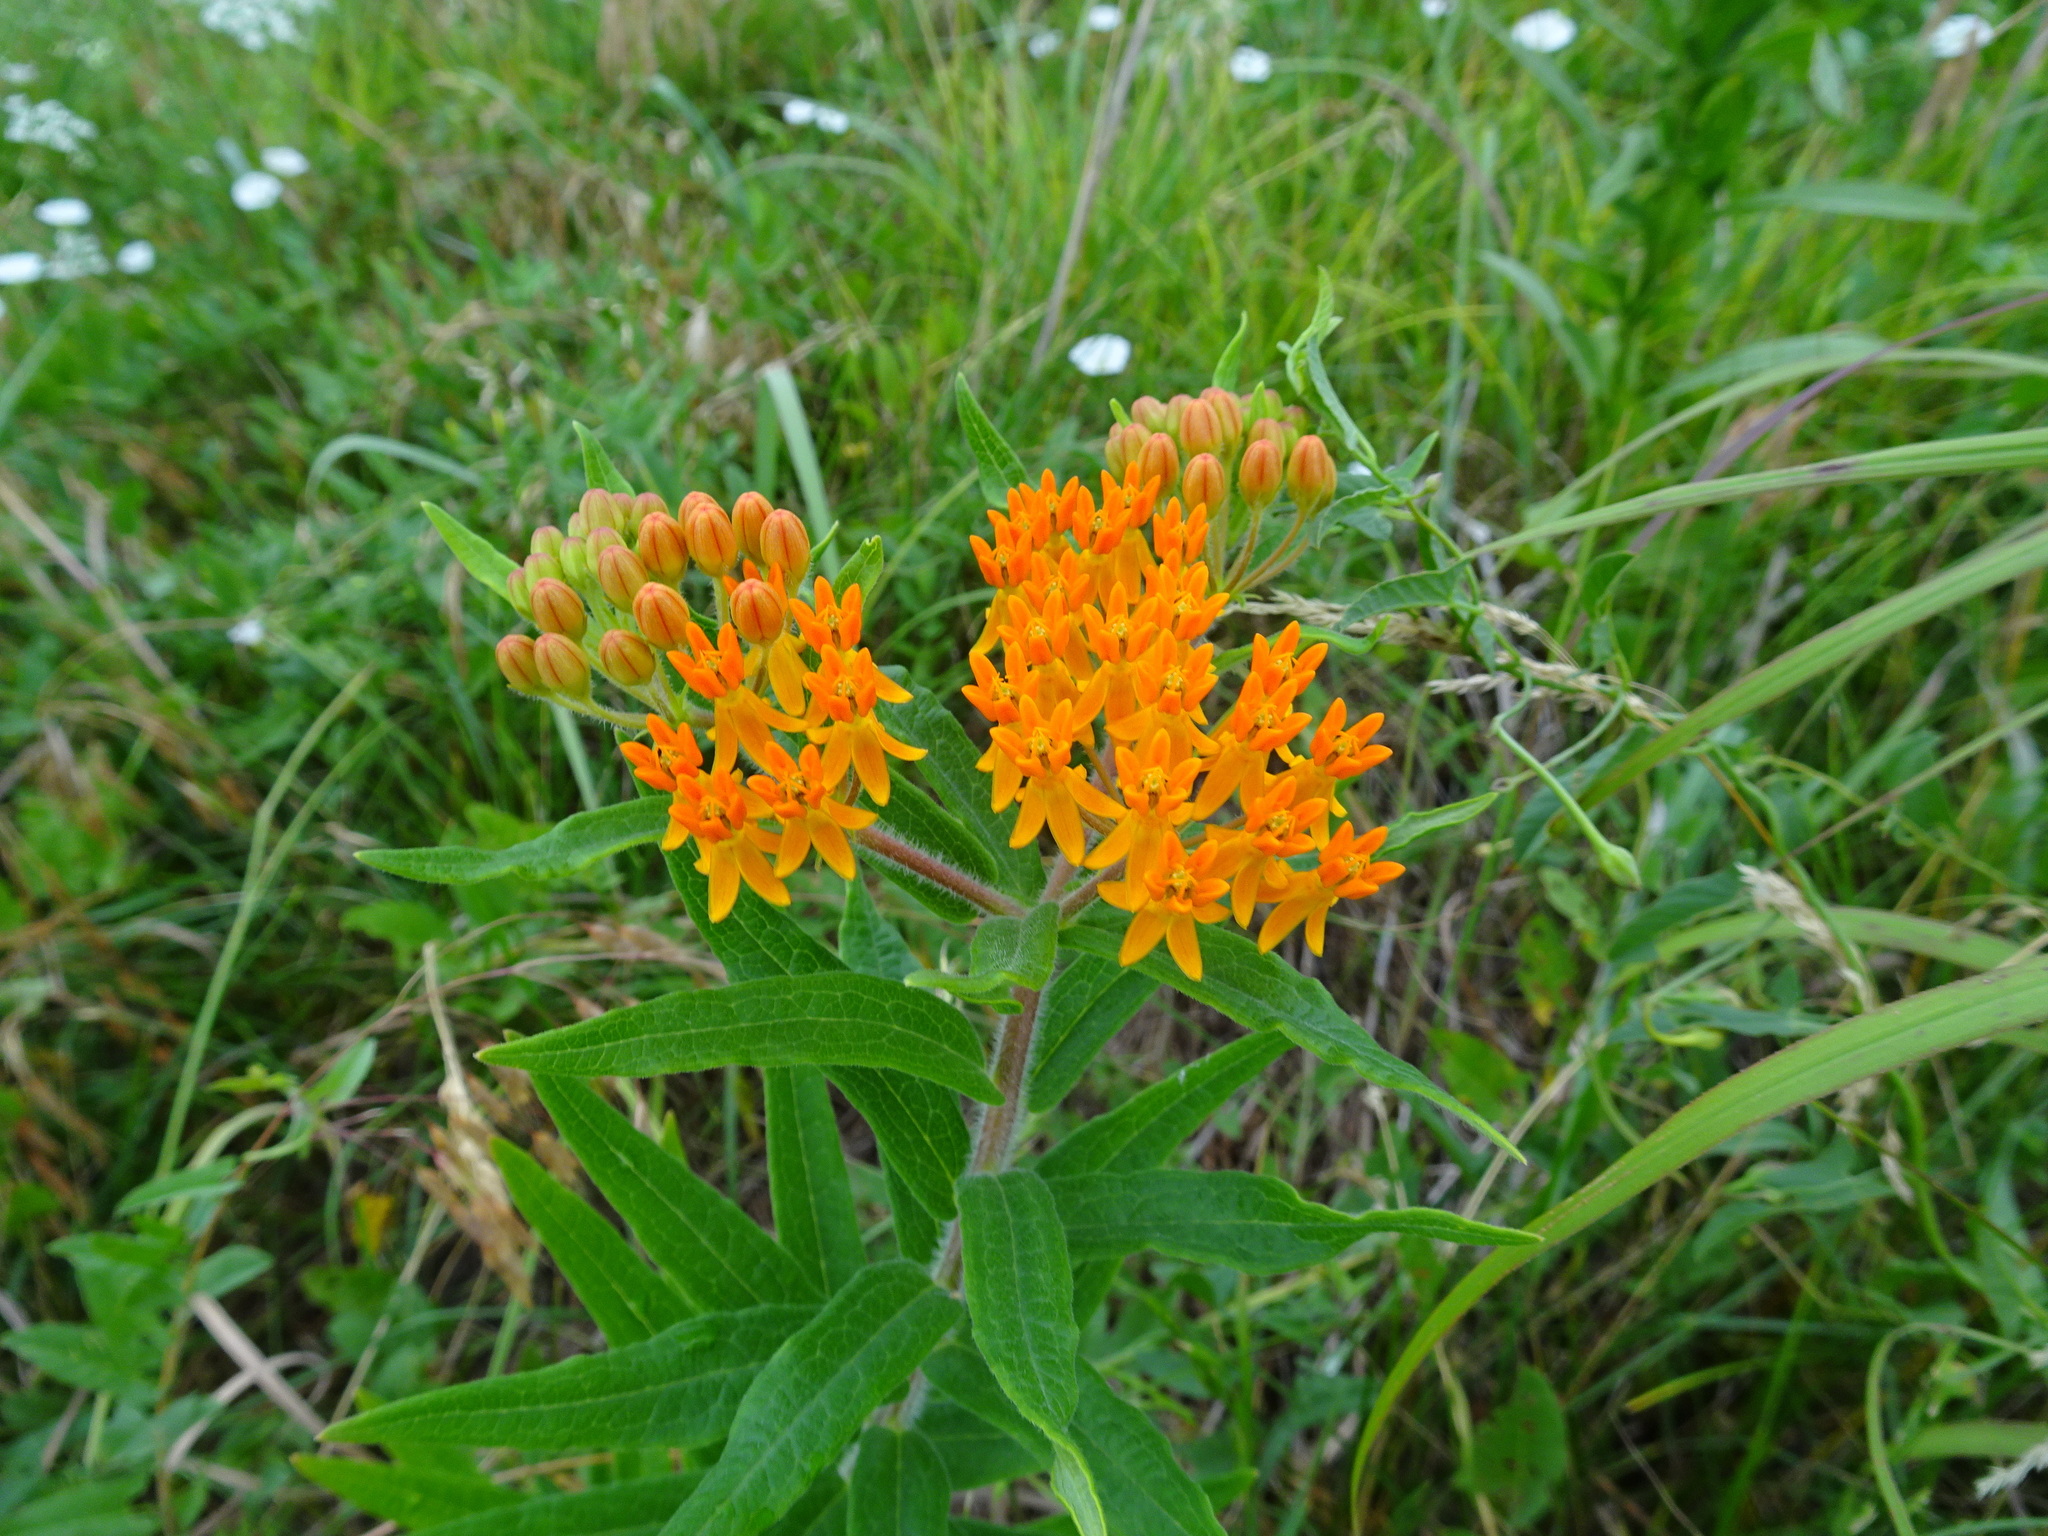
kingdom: Plantae
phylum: Tracheophyta
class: Magnoliopsida
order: Gentianales
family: Apocynaceae
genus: Asclepias
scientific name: Asclepias tuberosa
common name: Butterfly milkweed
